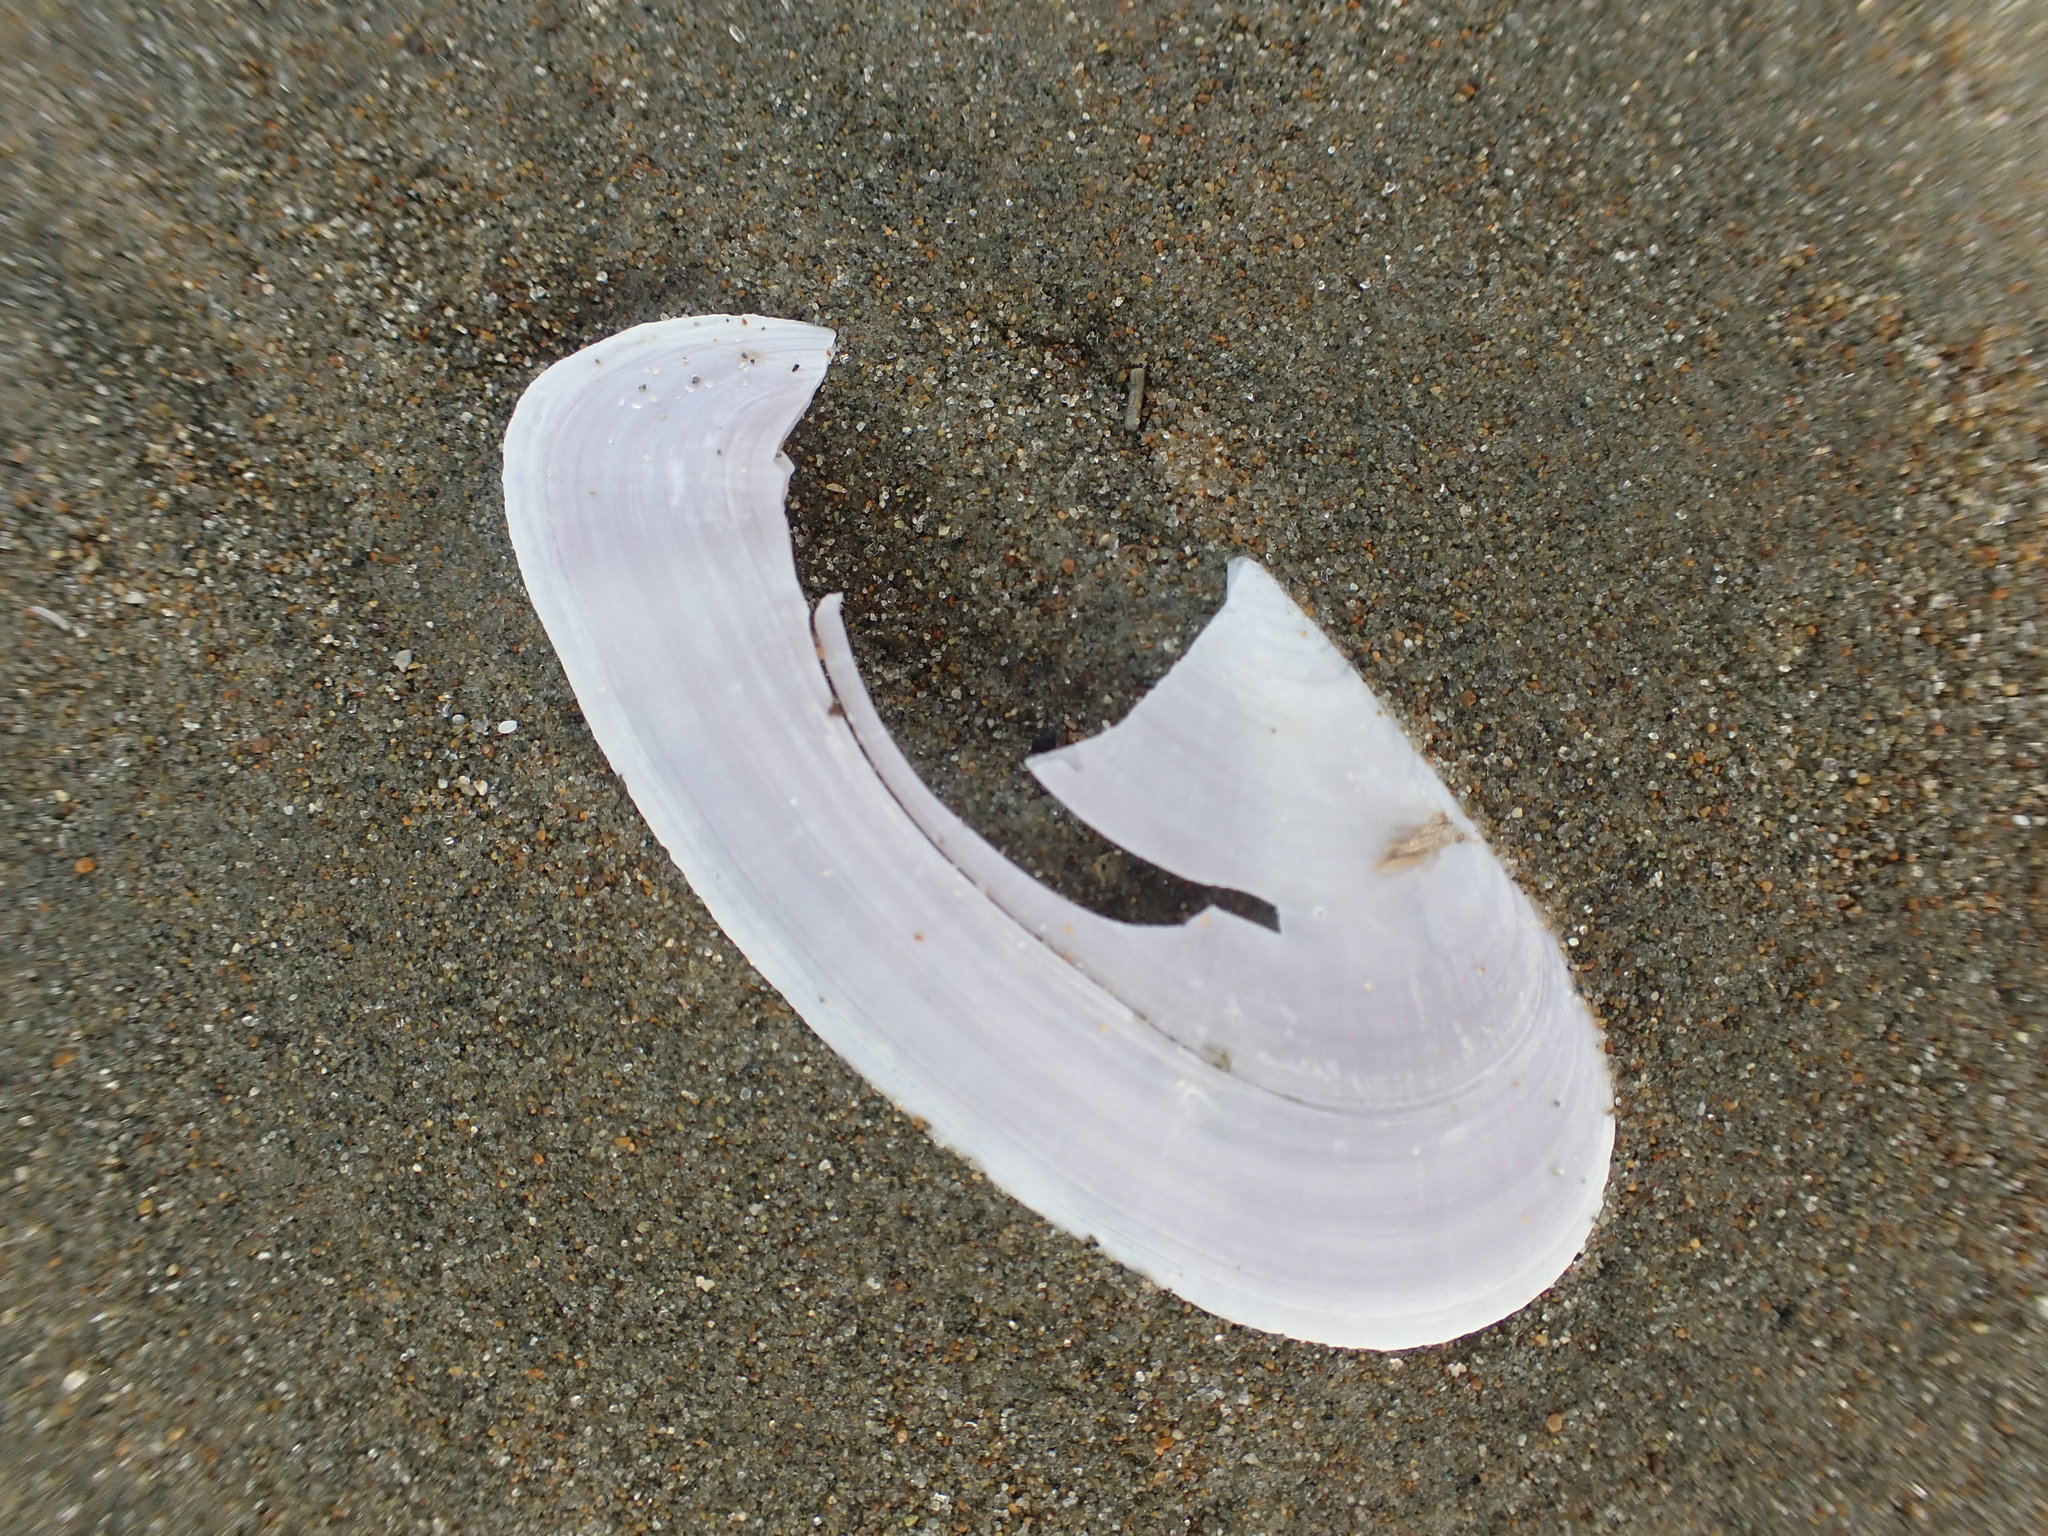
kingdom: Animalia
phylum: Mollusca
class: Bivalvia
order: Cardiida
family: Psammobiidae
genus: Hiatula
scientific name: Hiatula nitida
